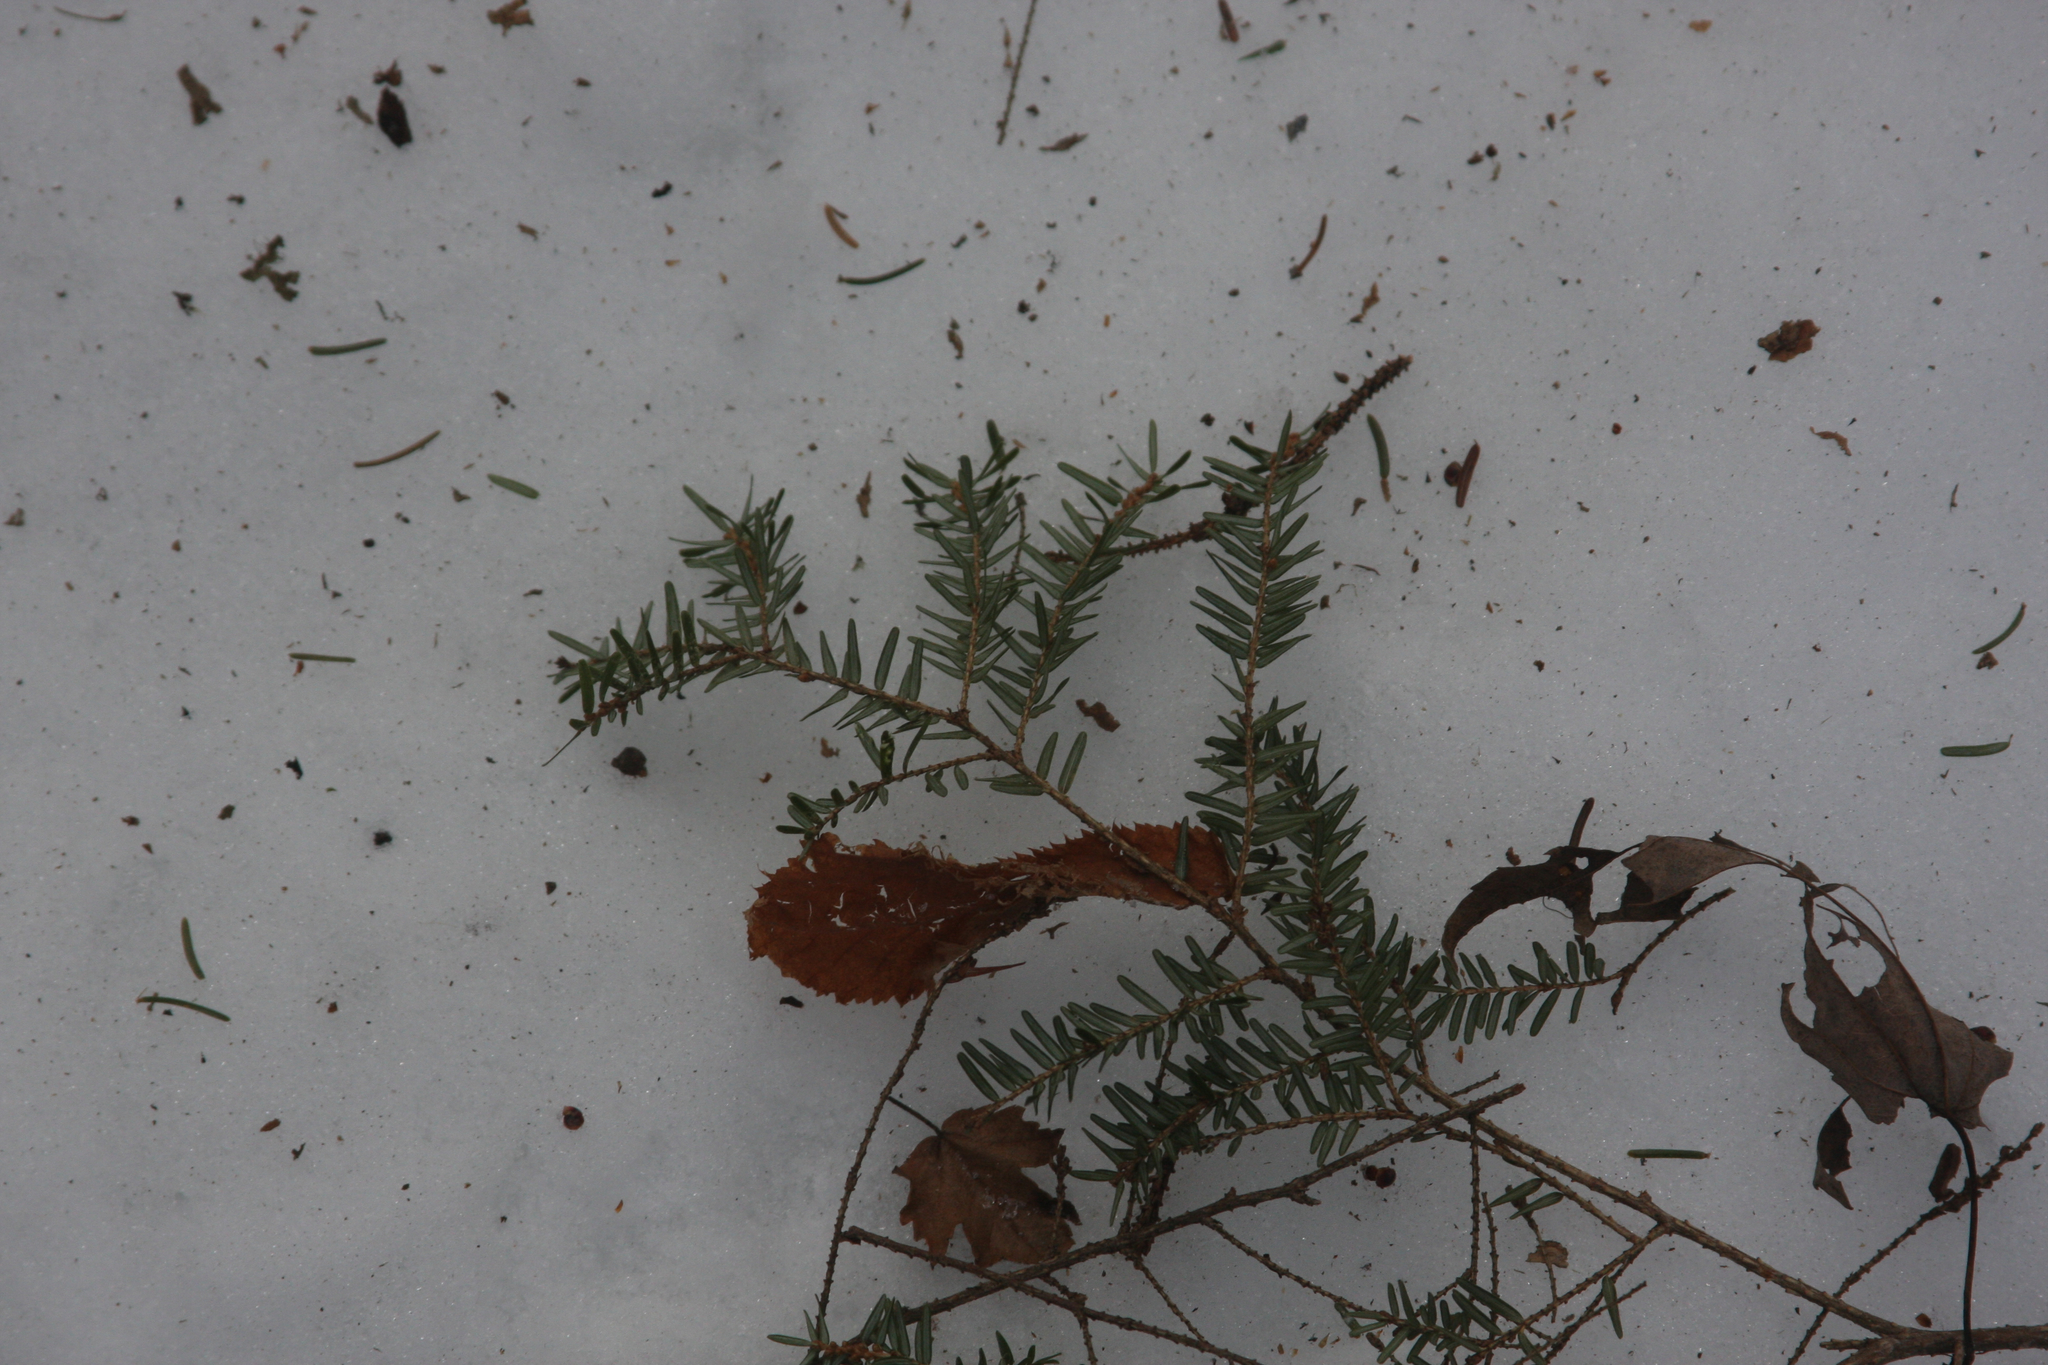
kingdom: Plantae
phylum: Tracheophyta
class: Pinopsida
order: Pinales
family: Pinaceae
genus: Tsuga
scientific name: Tsuga canadensis
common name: Eastern hemlock
